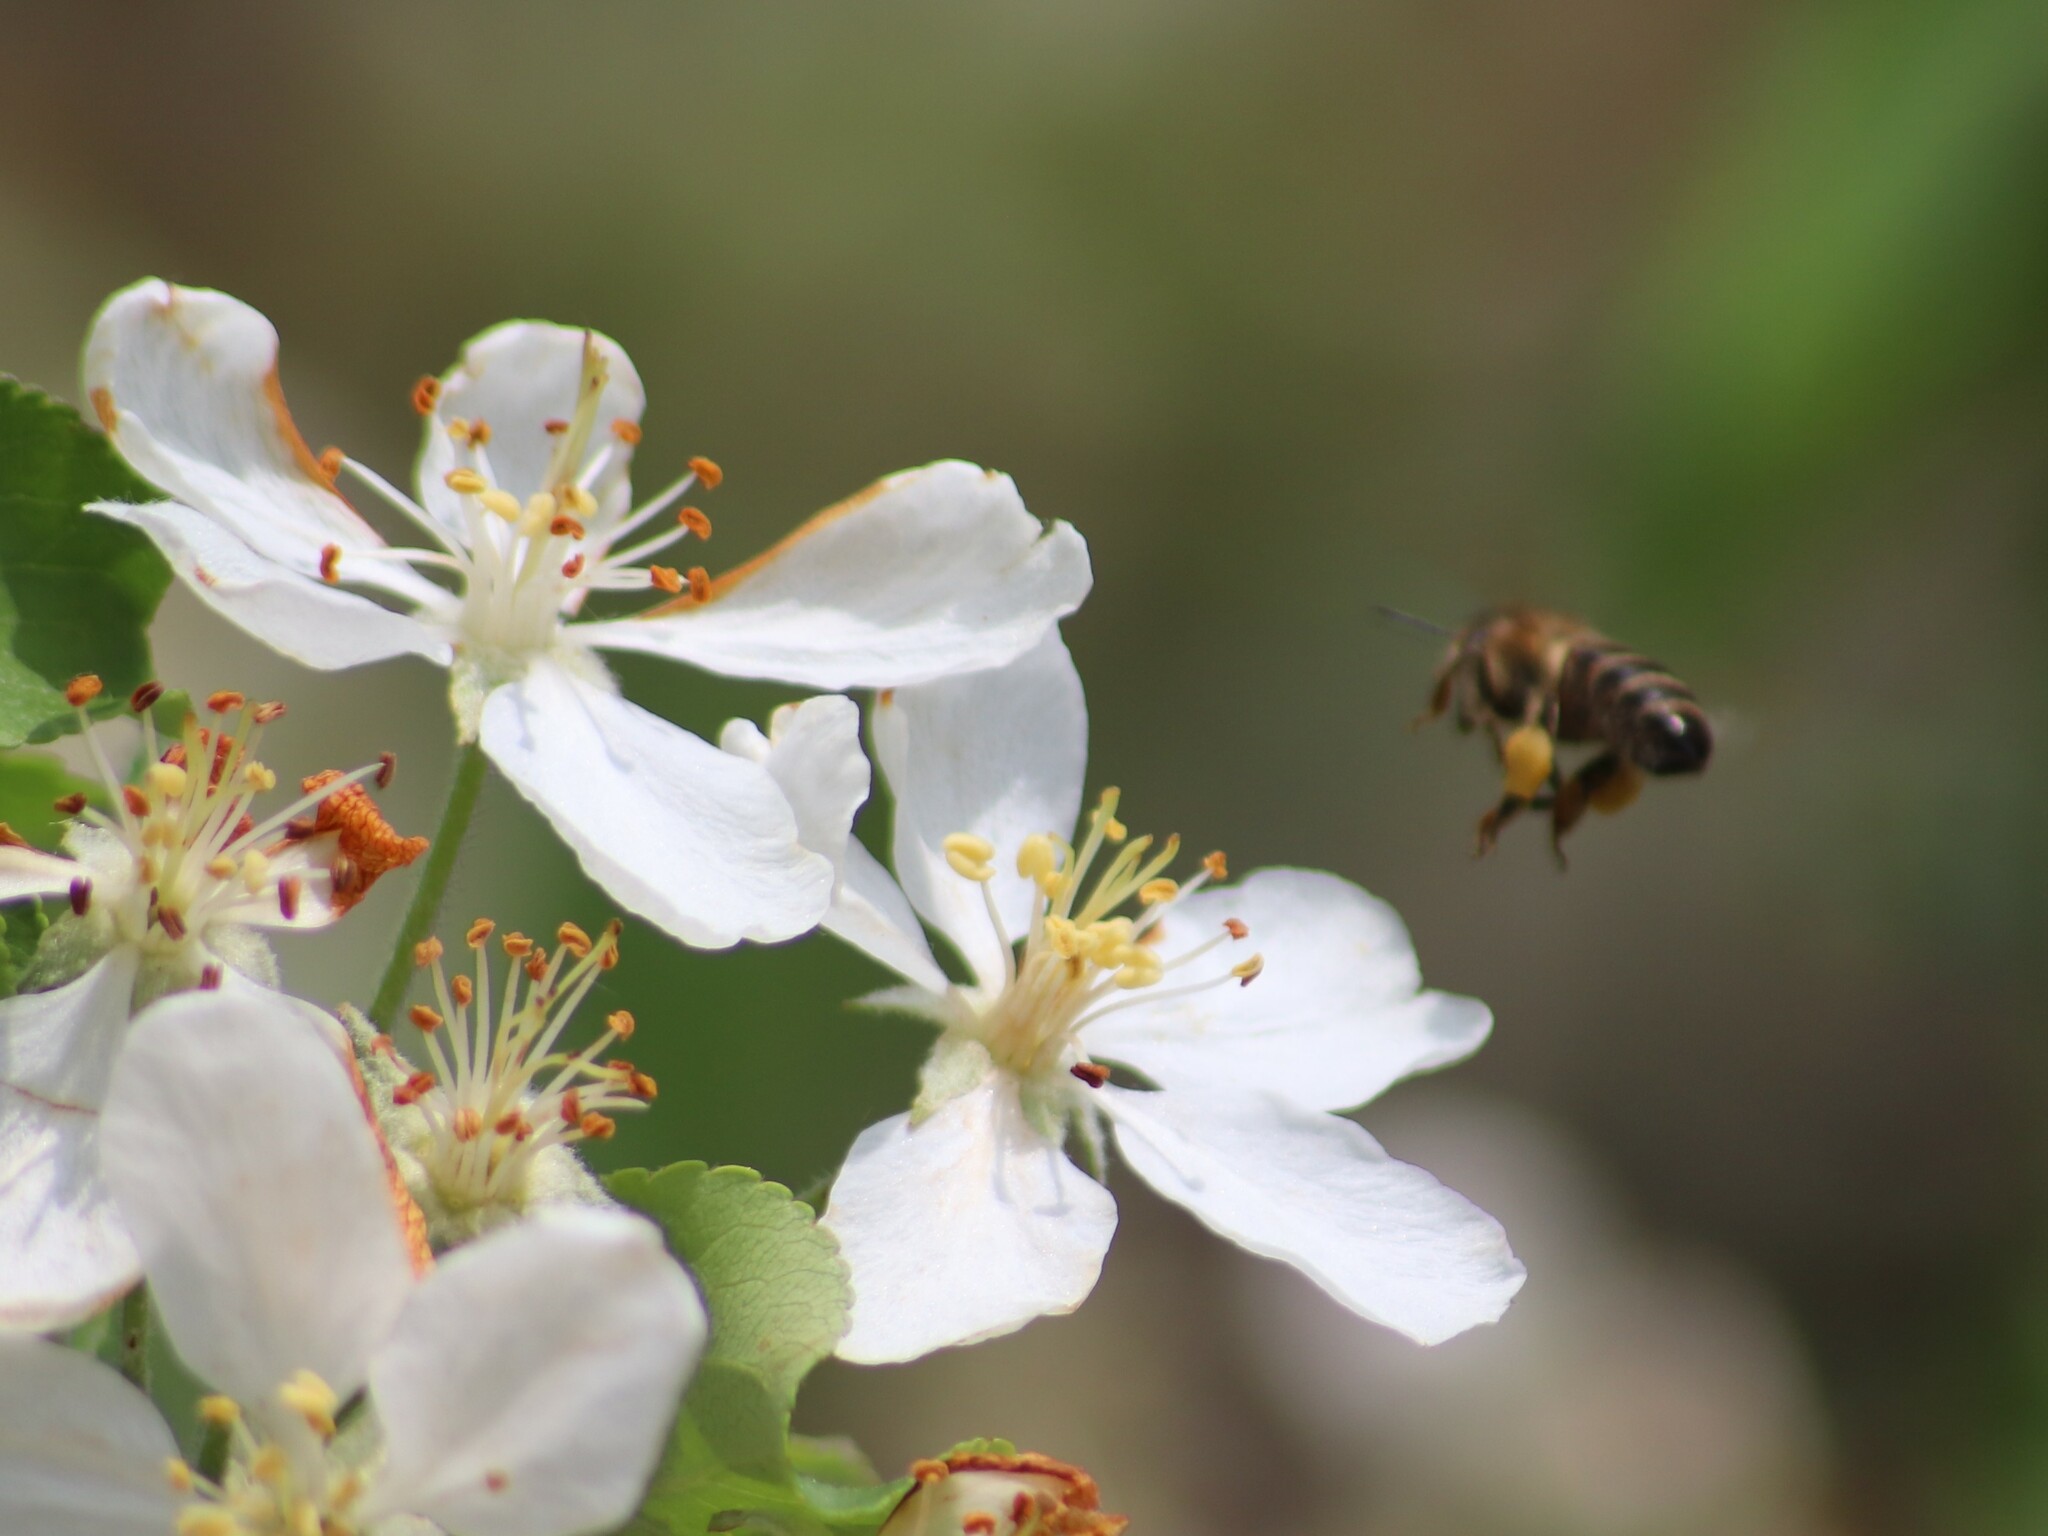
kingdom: Animalia
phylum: Arthropoda
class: Insecta
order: Hymenoptera
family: Apidae
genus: Apis
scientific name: Apis mellifera
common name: Honey bee
